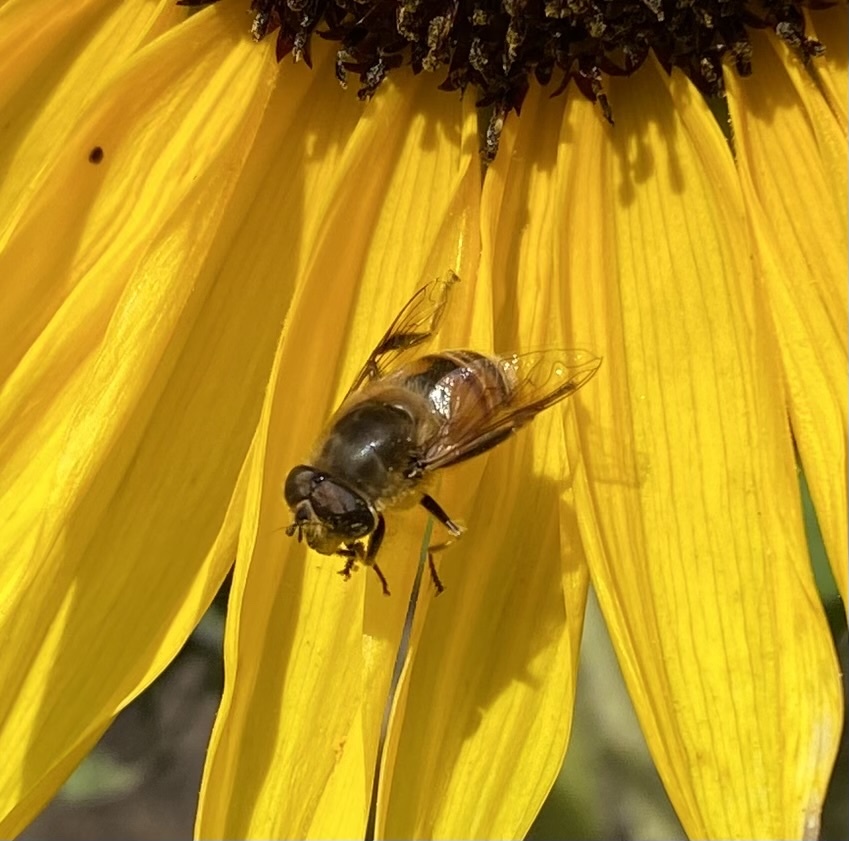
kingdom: Animalia
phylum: Arthropoda
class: Insecta
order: Diptera
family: Syrphidae
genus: Eristalis
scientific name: Eristalis tenax
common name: Drone fly
